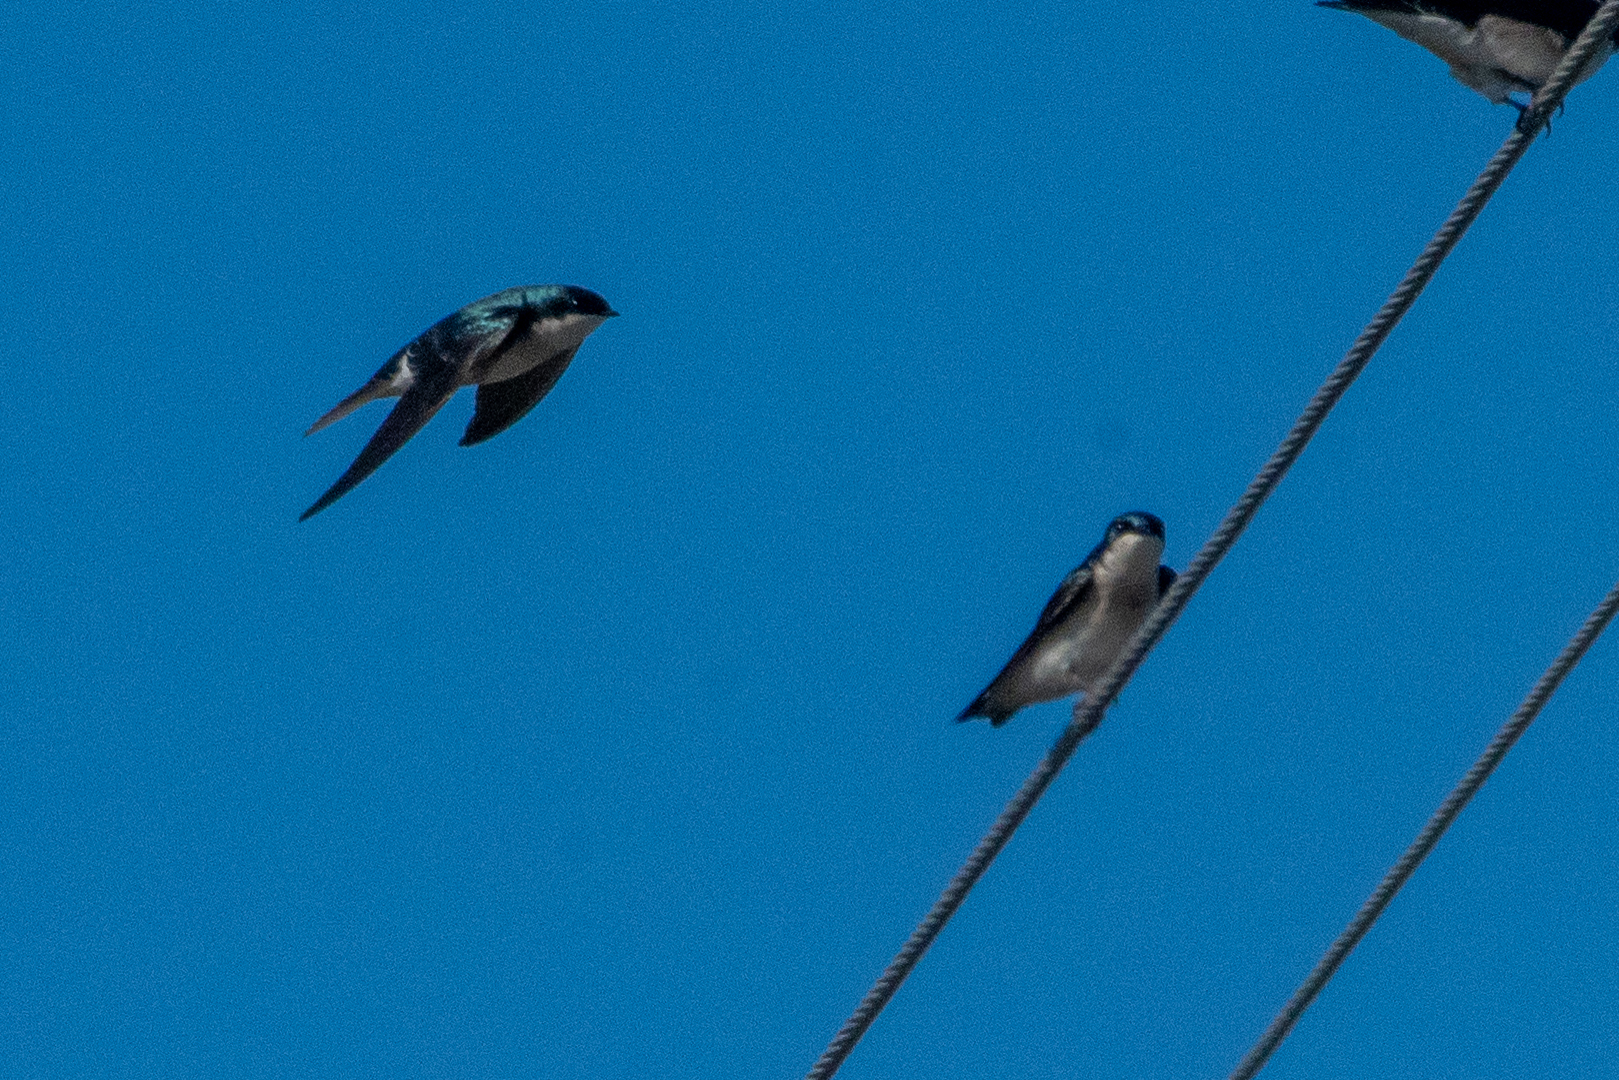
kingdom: Animalia
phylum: Chordata
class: Aves
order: Passeriformes
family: Hirundinidae
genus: Tachycineta
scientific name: Tachycineta bicolor
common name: Tree swallow
